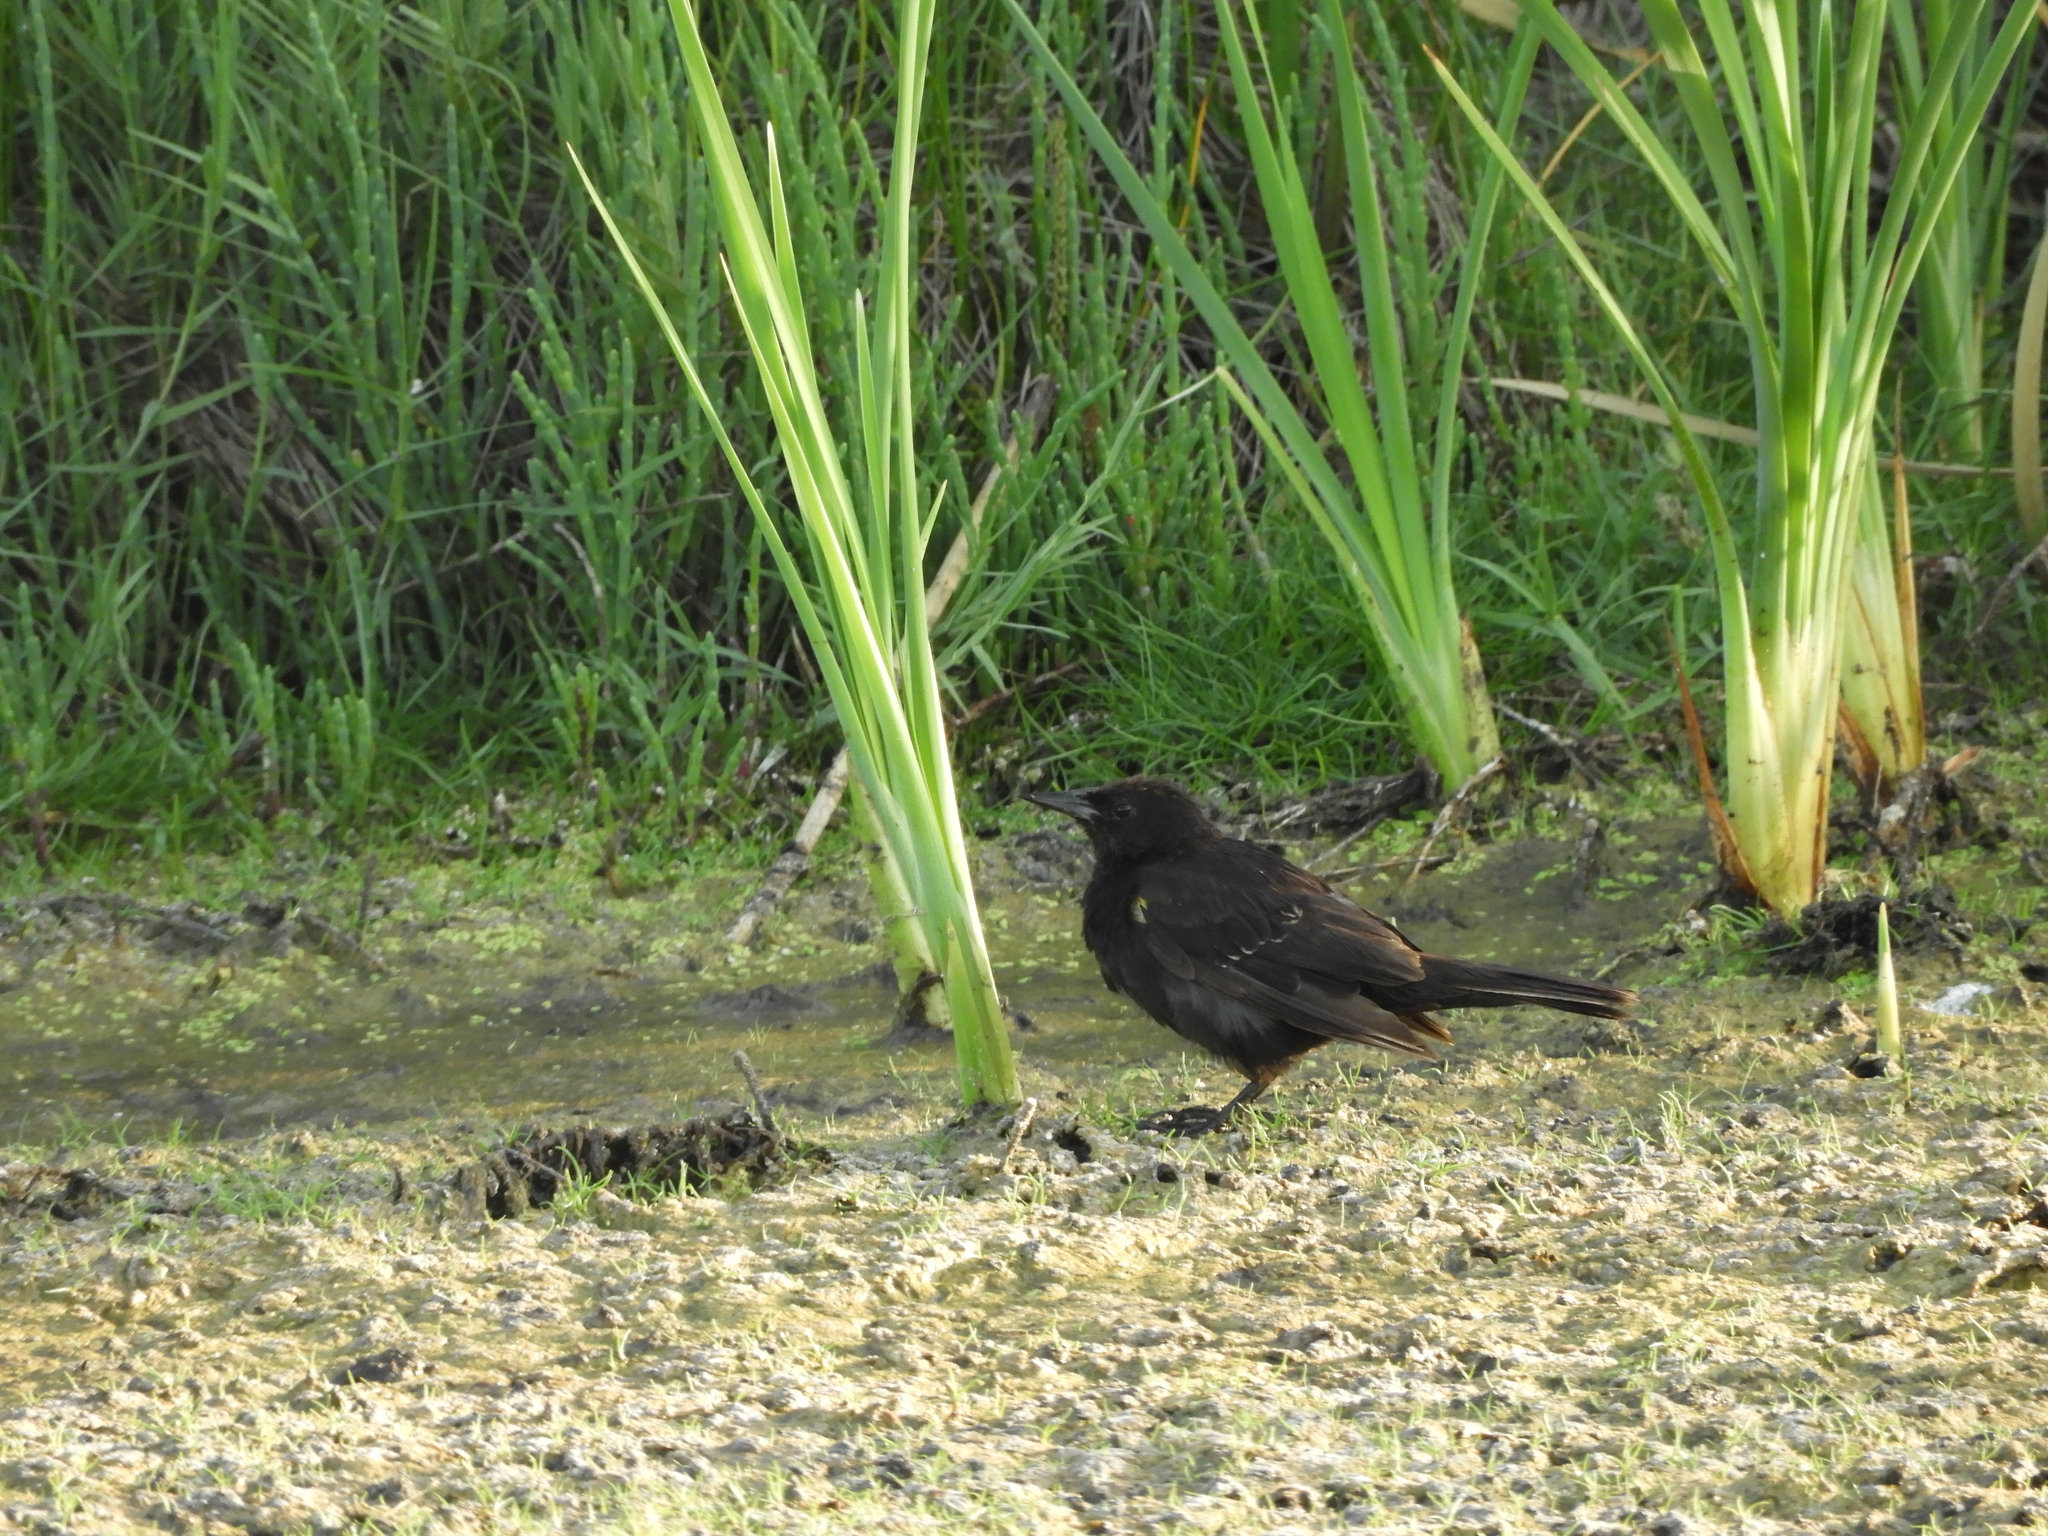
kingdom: Animalia
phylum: Chordata
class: Aves
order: Passeriformes
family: Icteridae
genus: Agelasticus
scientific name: Agelasticus thilius
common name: Yellow-winged blackbird
